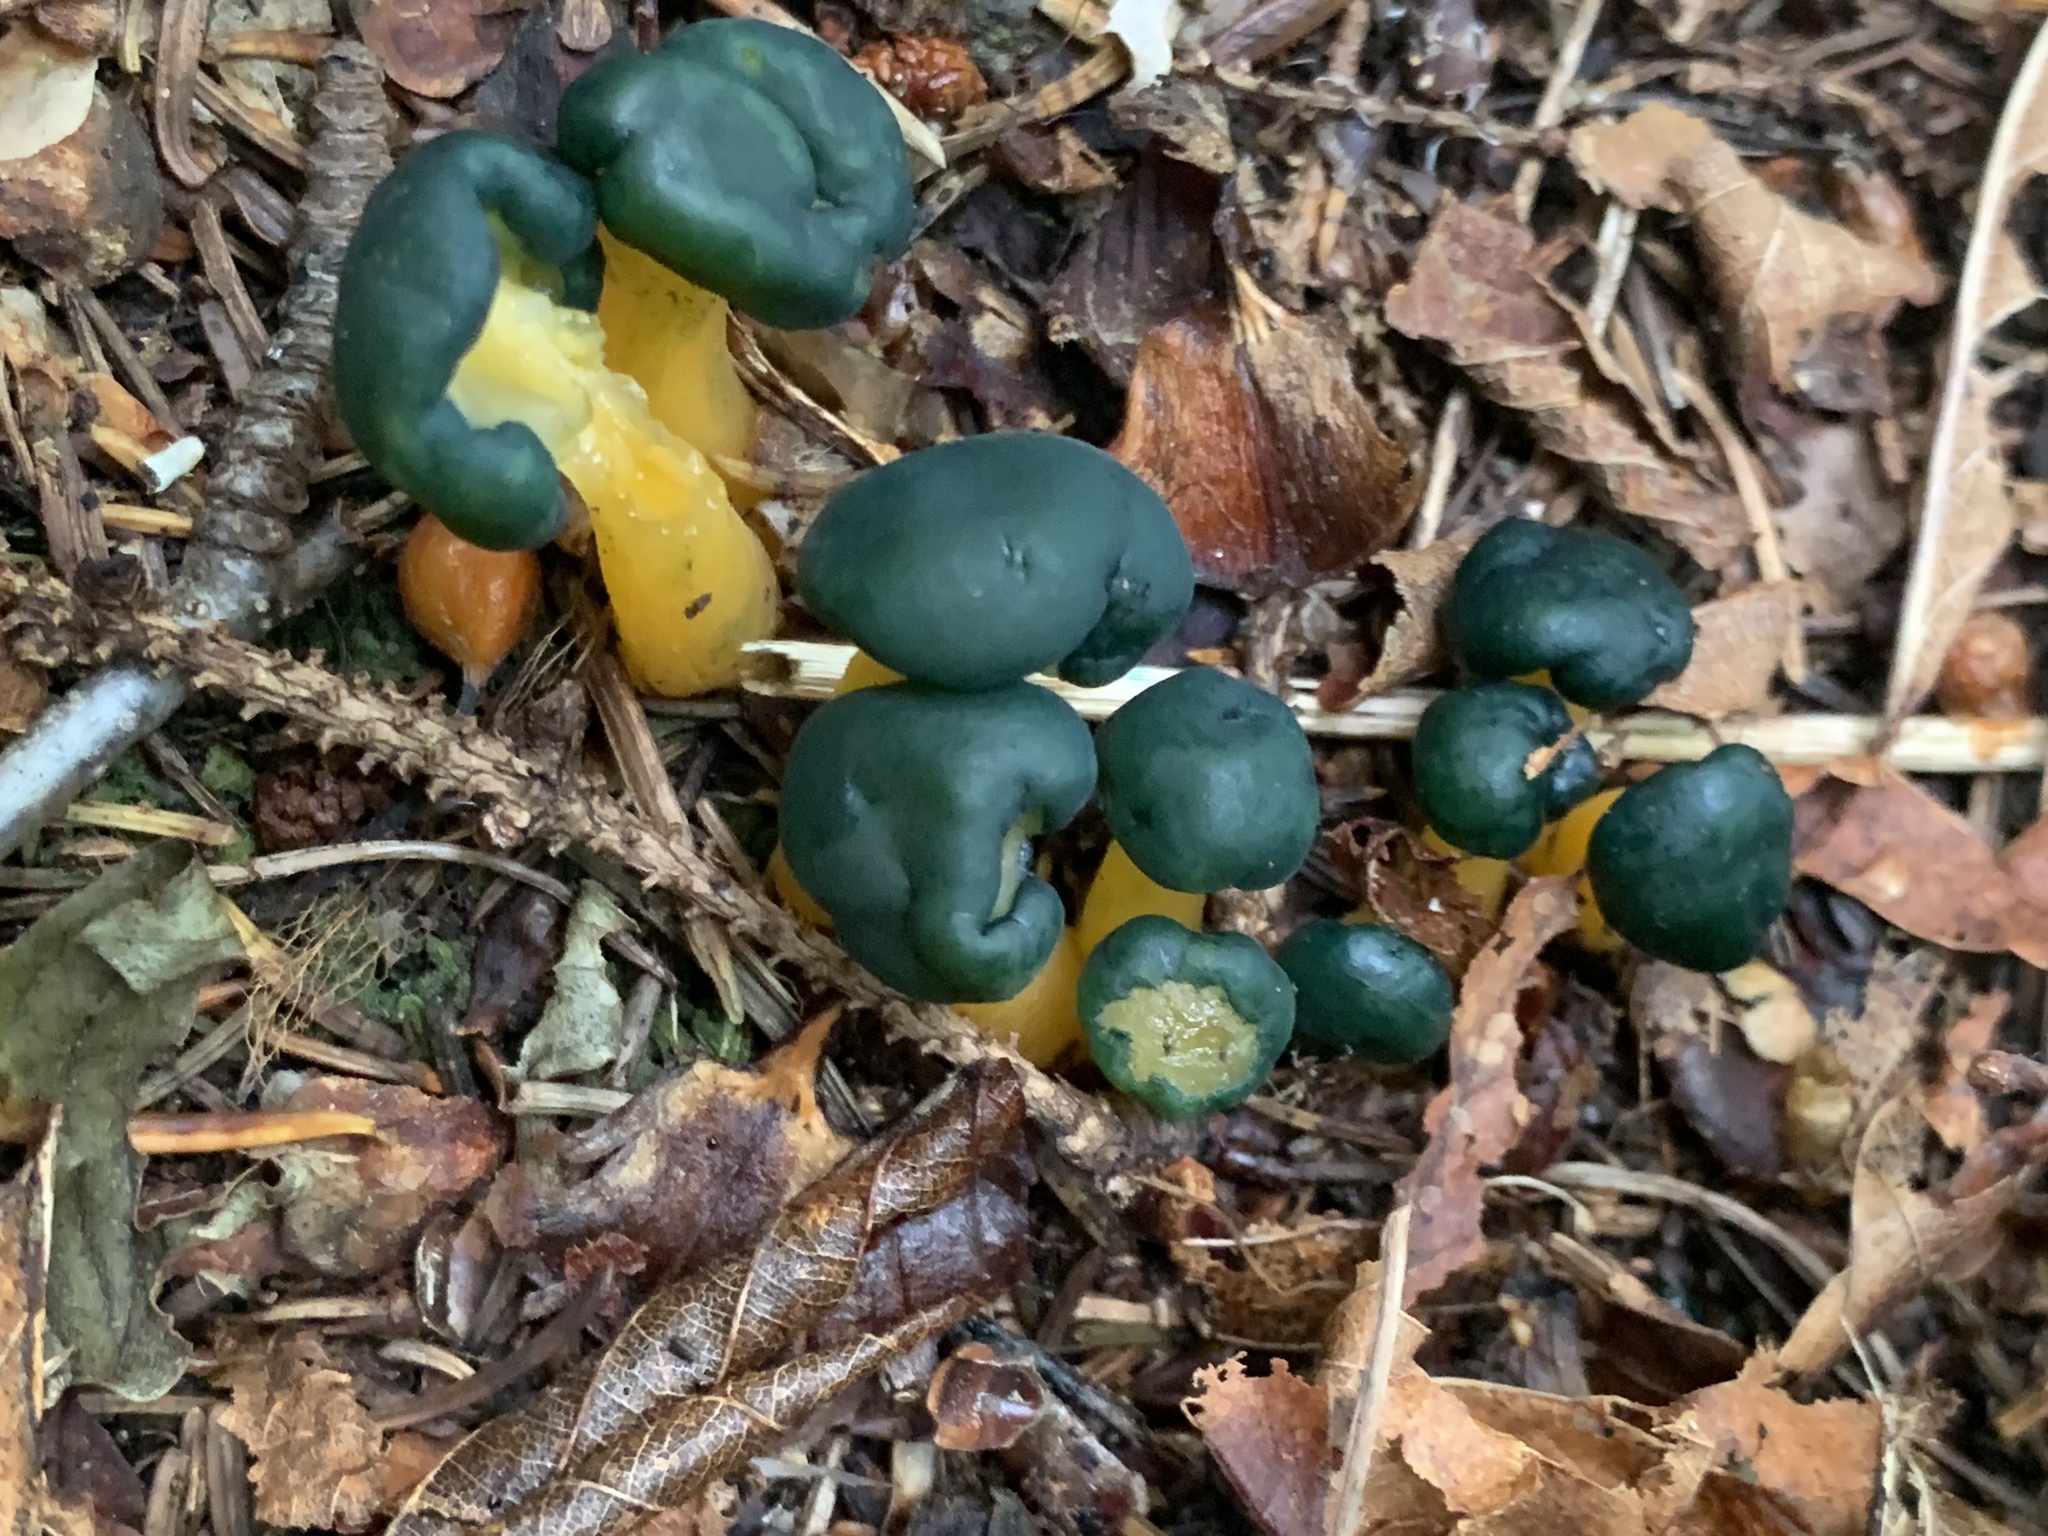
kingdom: Fungi
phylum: Ascomycota
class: Leotiomycetes
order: Leotiales
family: Leotiaceae
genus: Leotia
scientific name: Leotia lubrica
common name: Jellybaby
